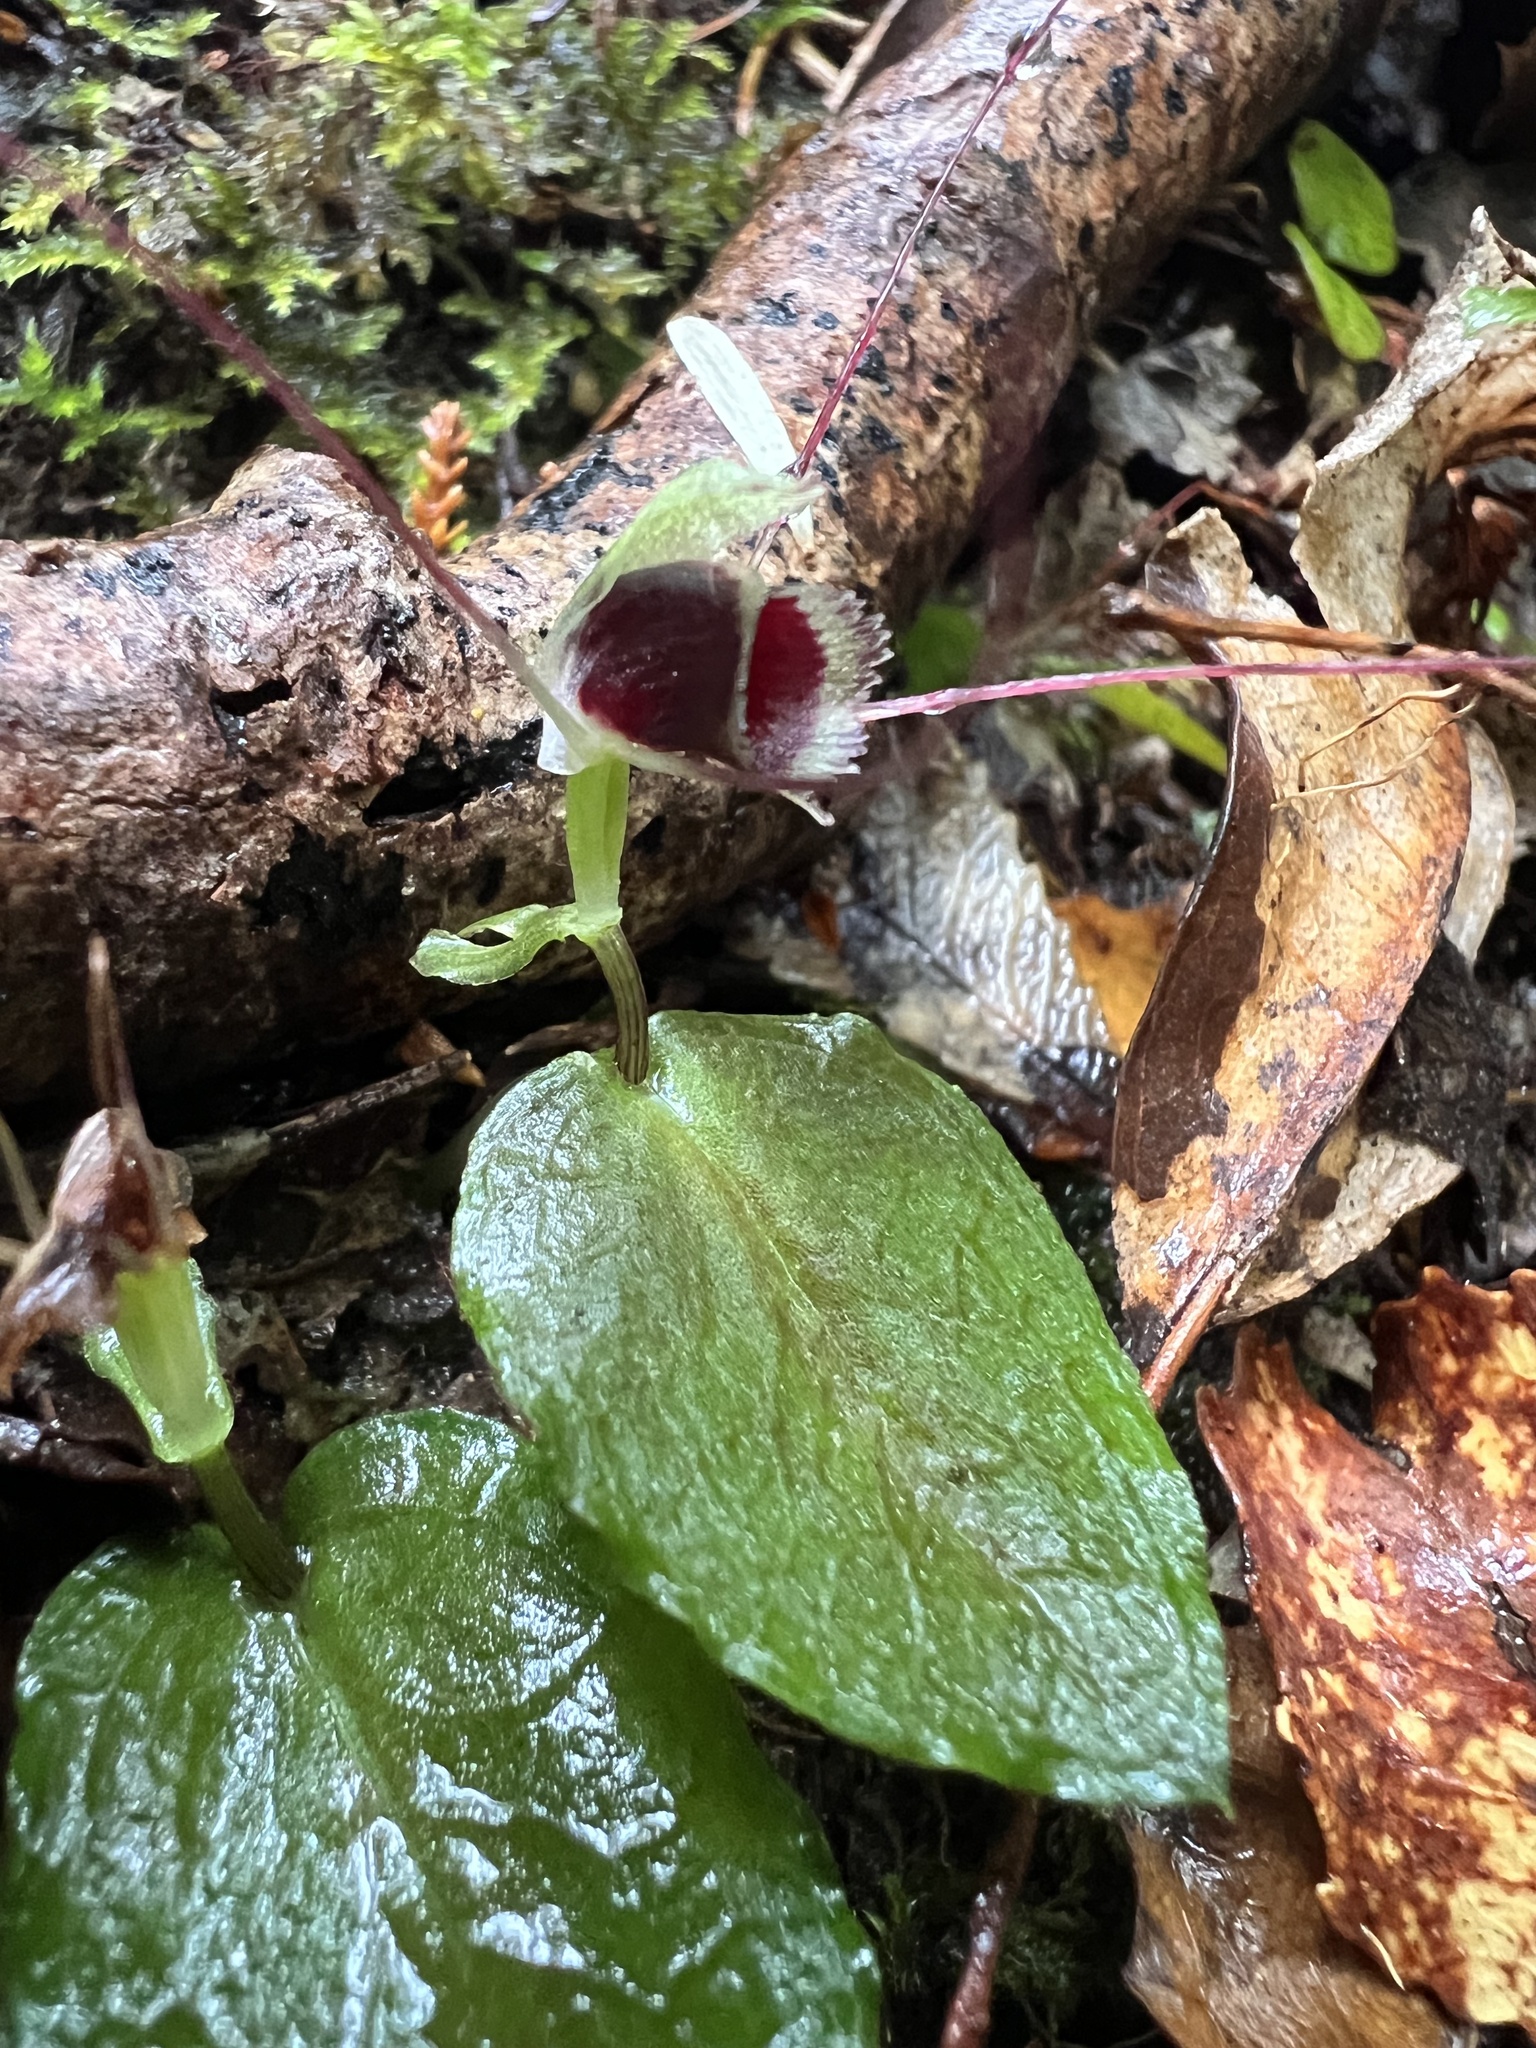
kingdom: Plantae
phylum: Tracheophyta
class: Liliopsida
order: Asparagales
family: Orchidaceae
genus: Corybas
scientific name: Corybas oblongus
